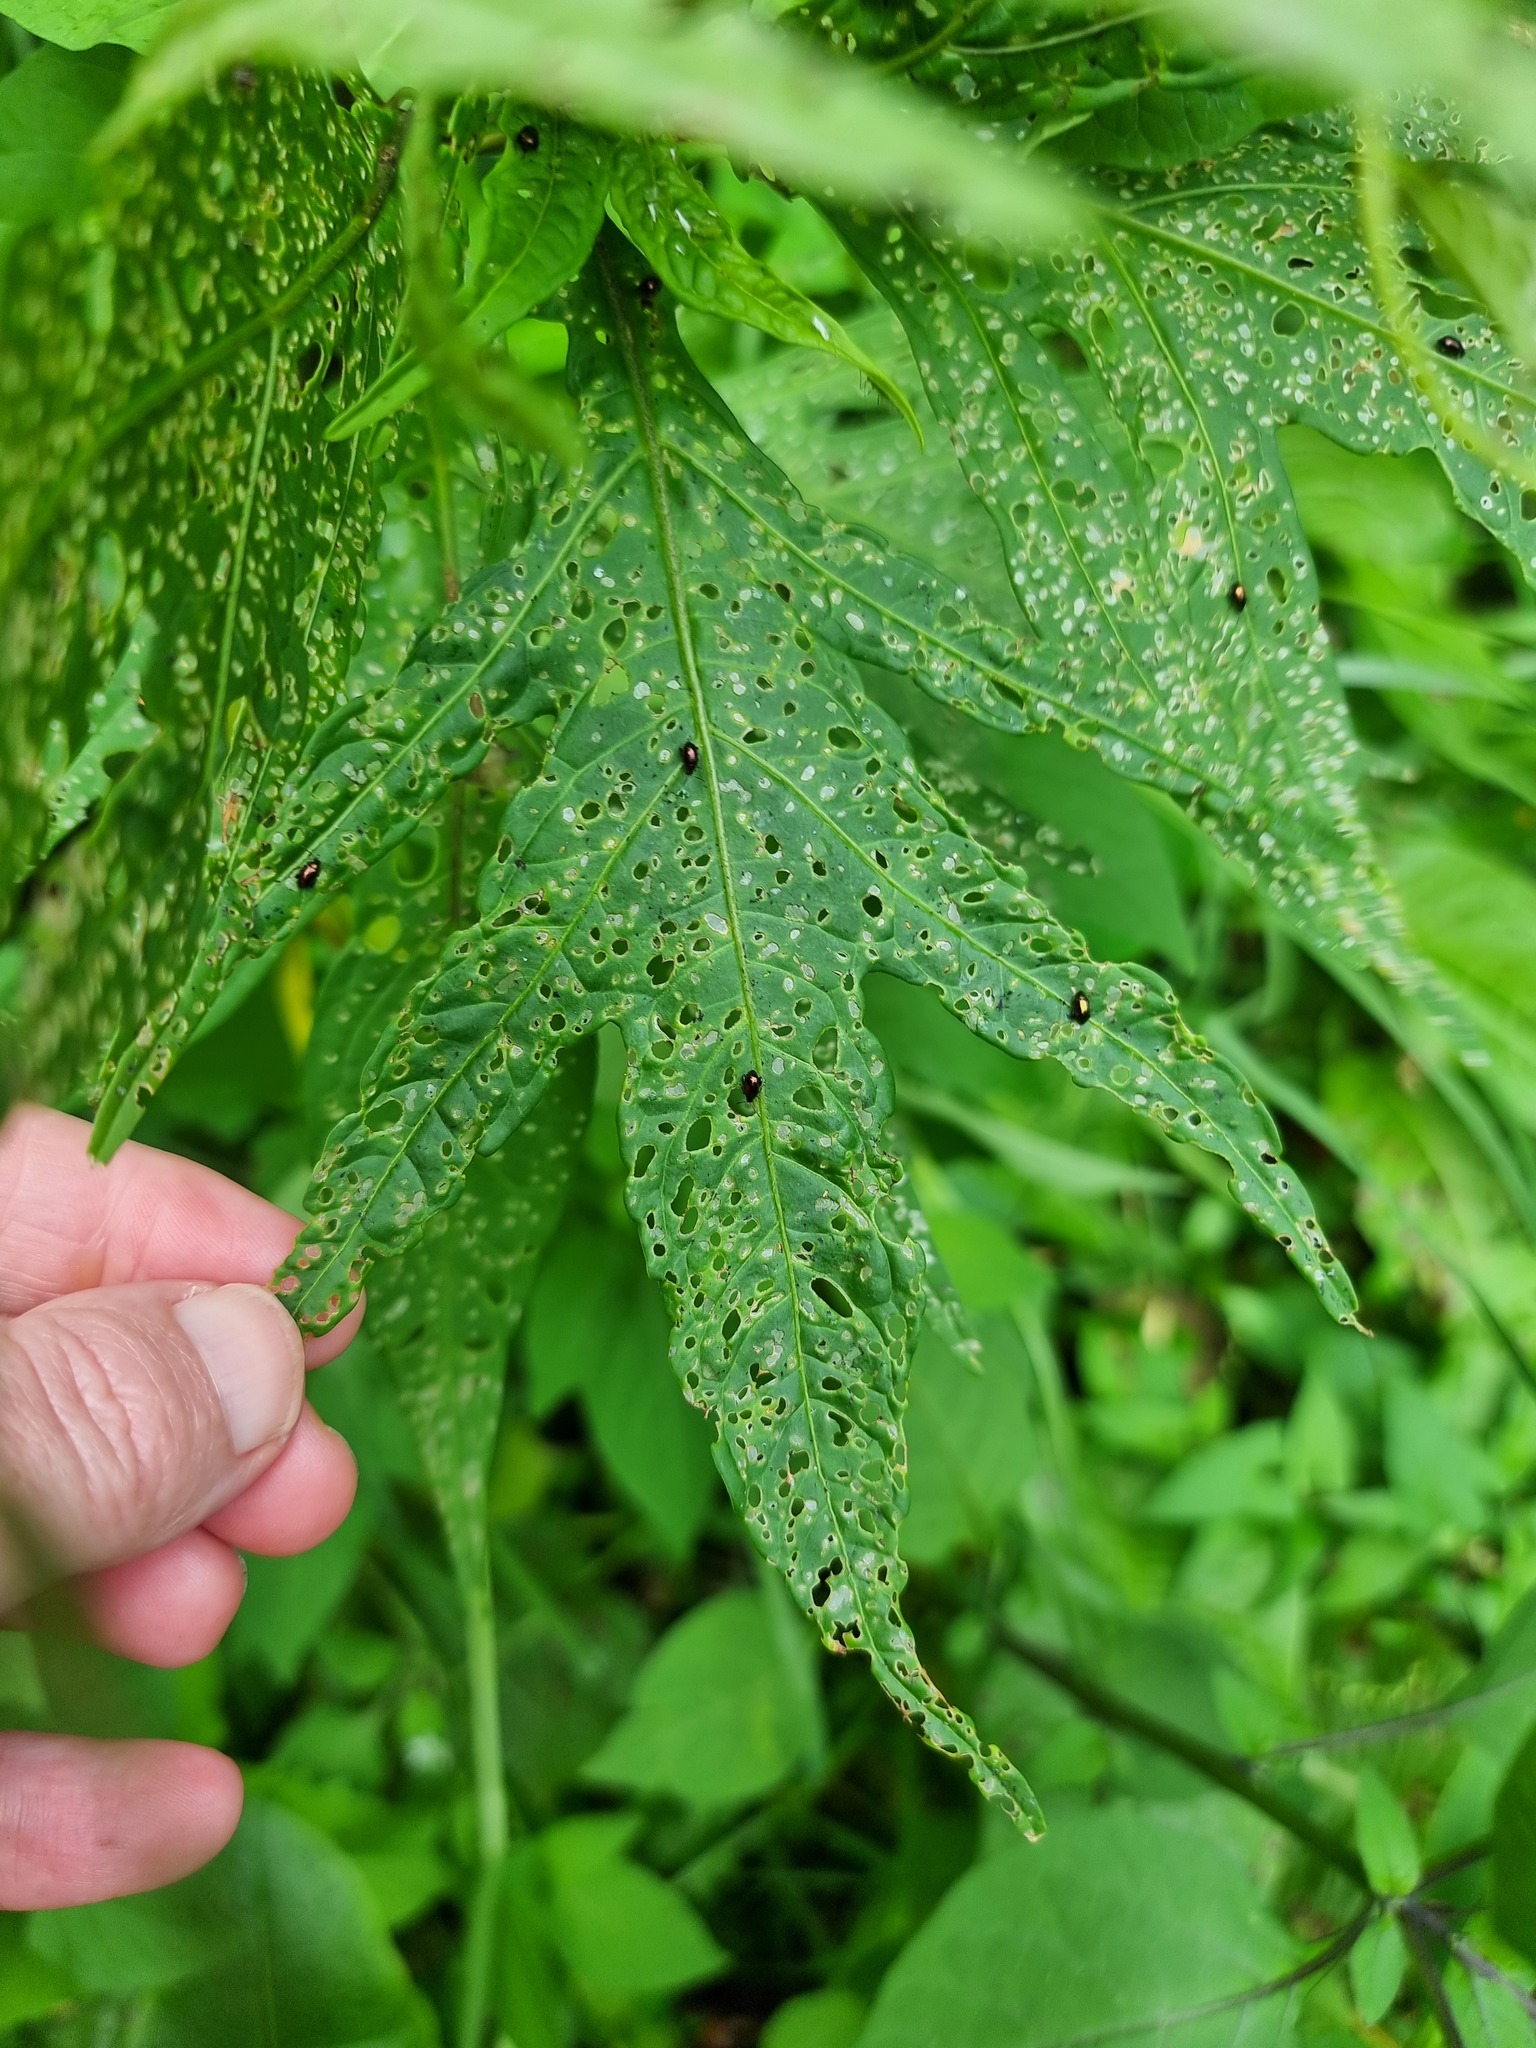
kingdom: Plantae
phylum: Tracheophyta
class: Magnoliopsida
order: Solanales
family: Solanaceae
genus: Solanum
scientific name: Solanum
